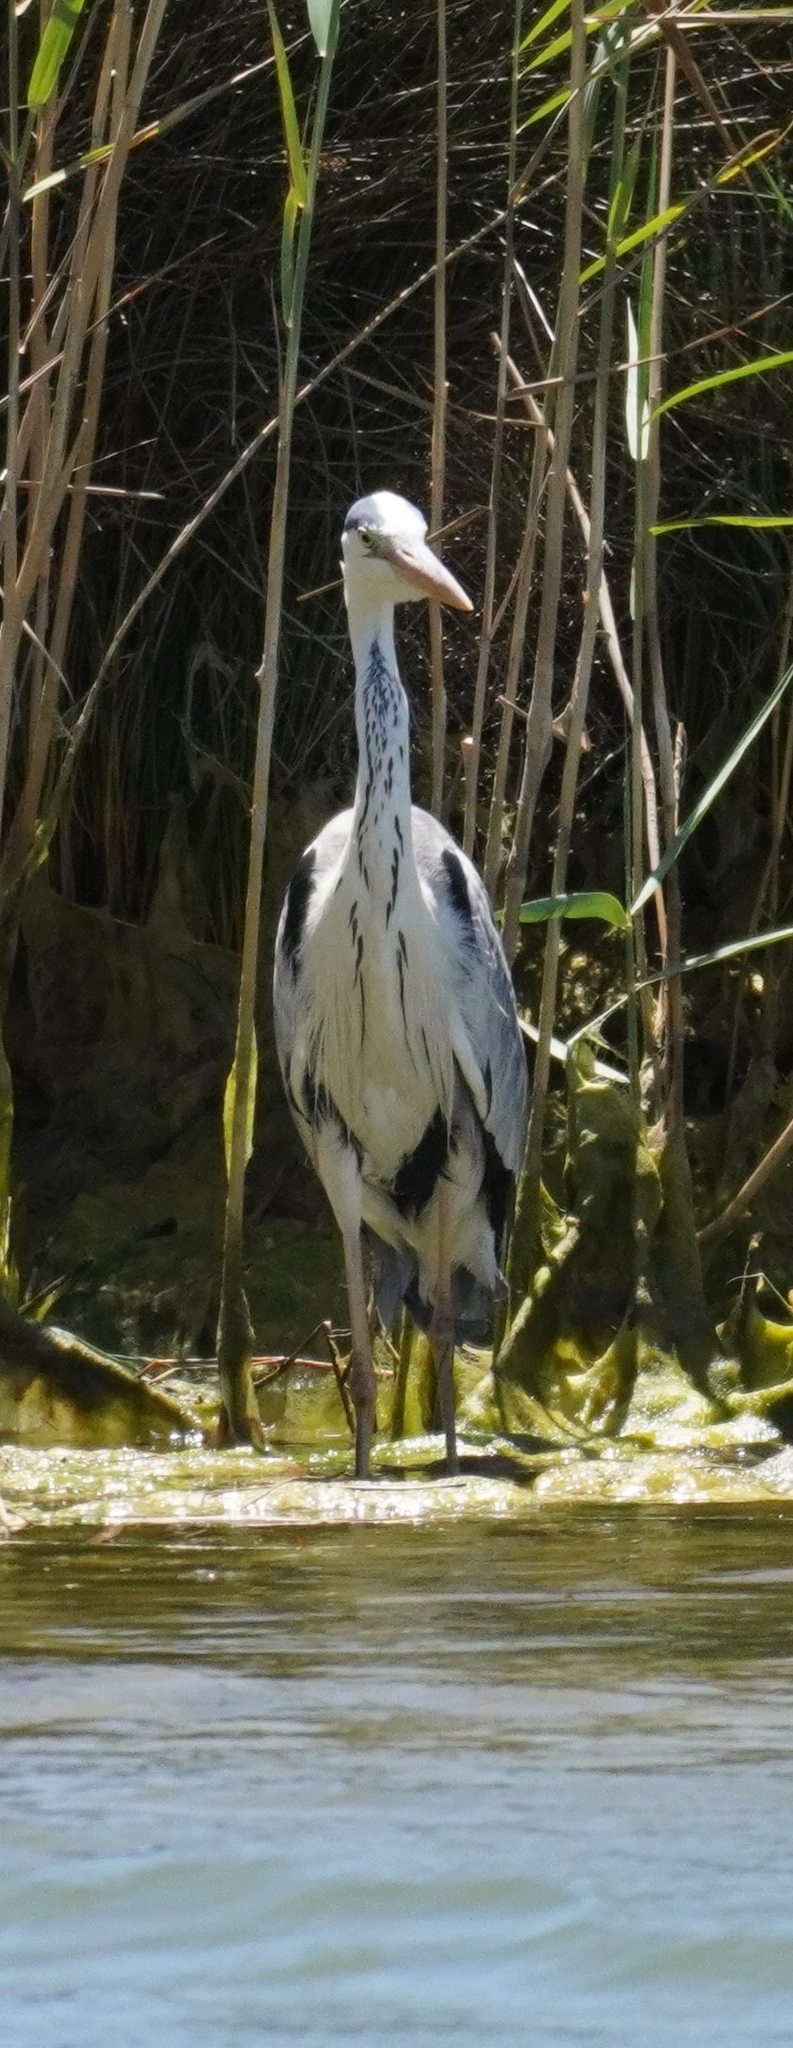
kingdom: Animalia
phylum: Chordata
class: Aves
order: Pelecaniformes
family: Ardeidae
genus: Ardea
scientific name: Ardea cinerea
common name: Grey heron
